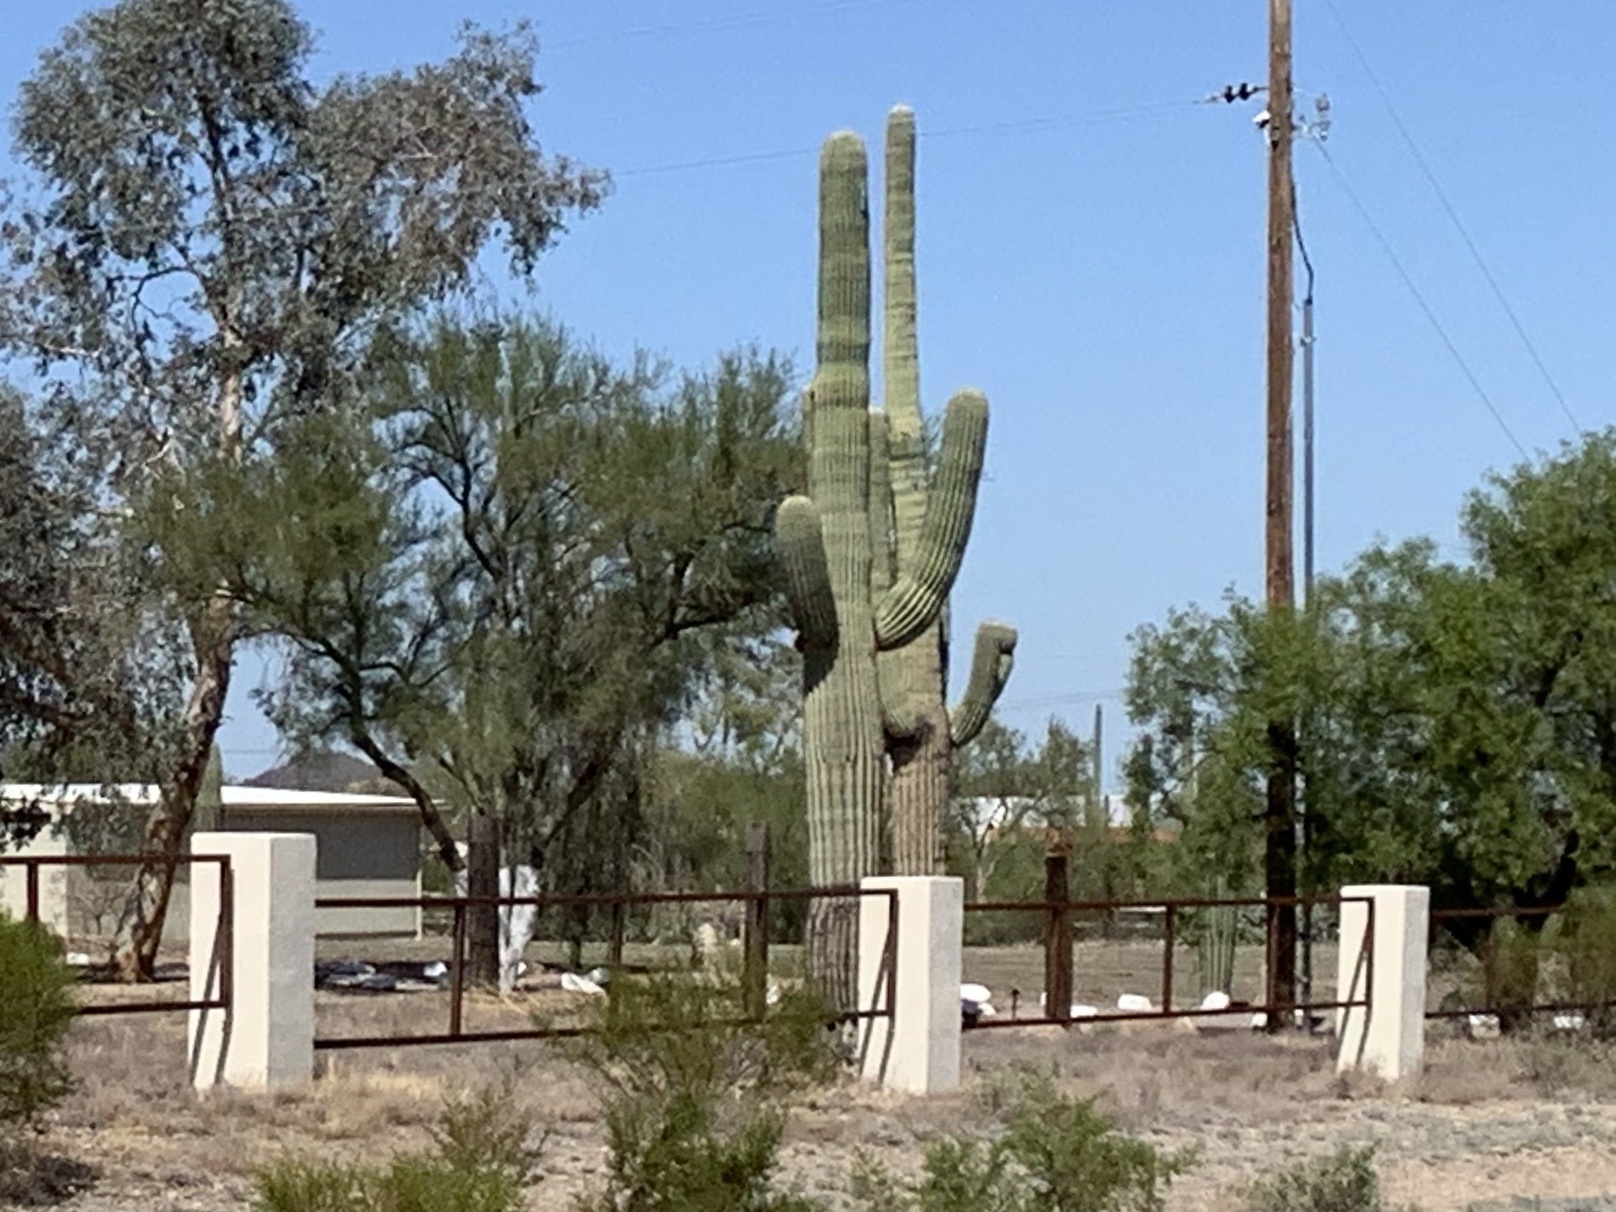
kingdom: Plantae
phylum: Tracheophyta
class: Magnoliopsida
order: Caryophyllales
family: Cactaceae
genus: Carnegiea
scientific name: Carnegiea gigantea
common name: Saguaro
